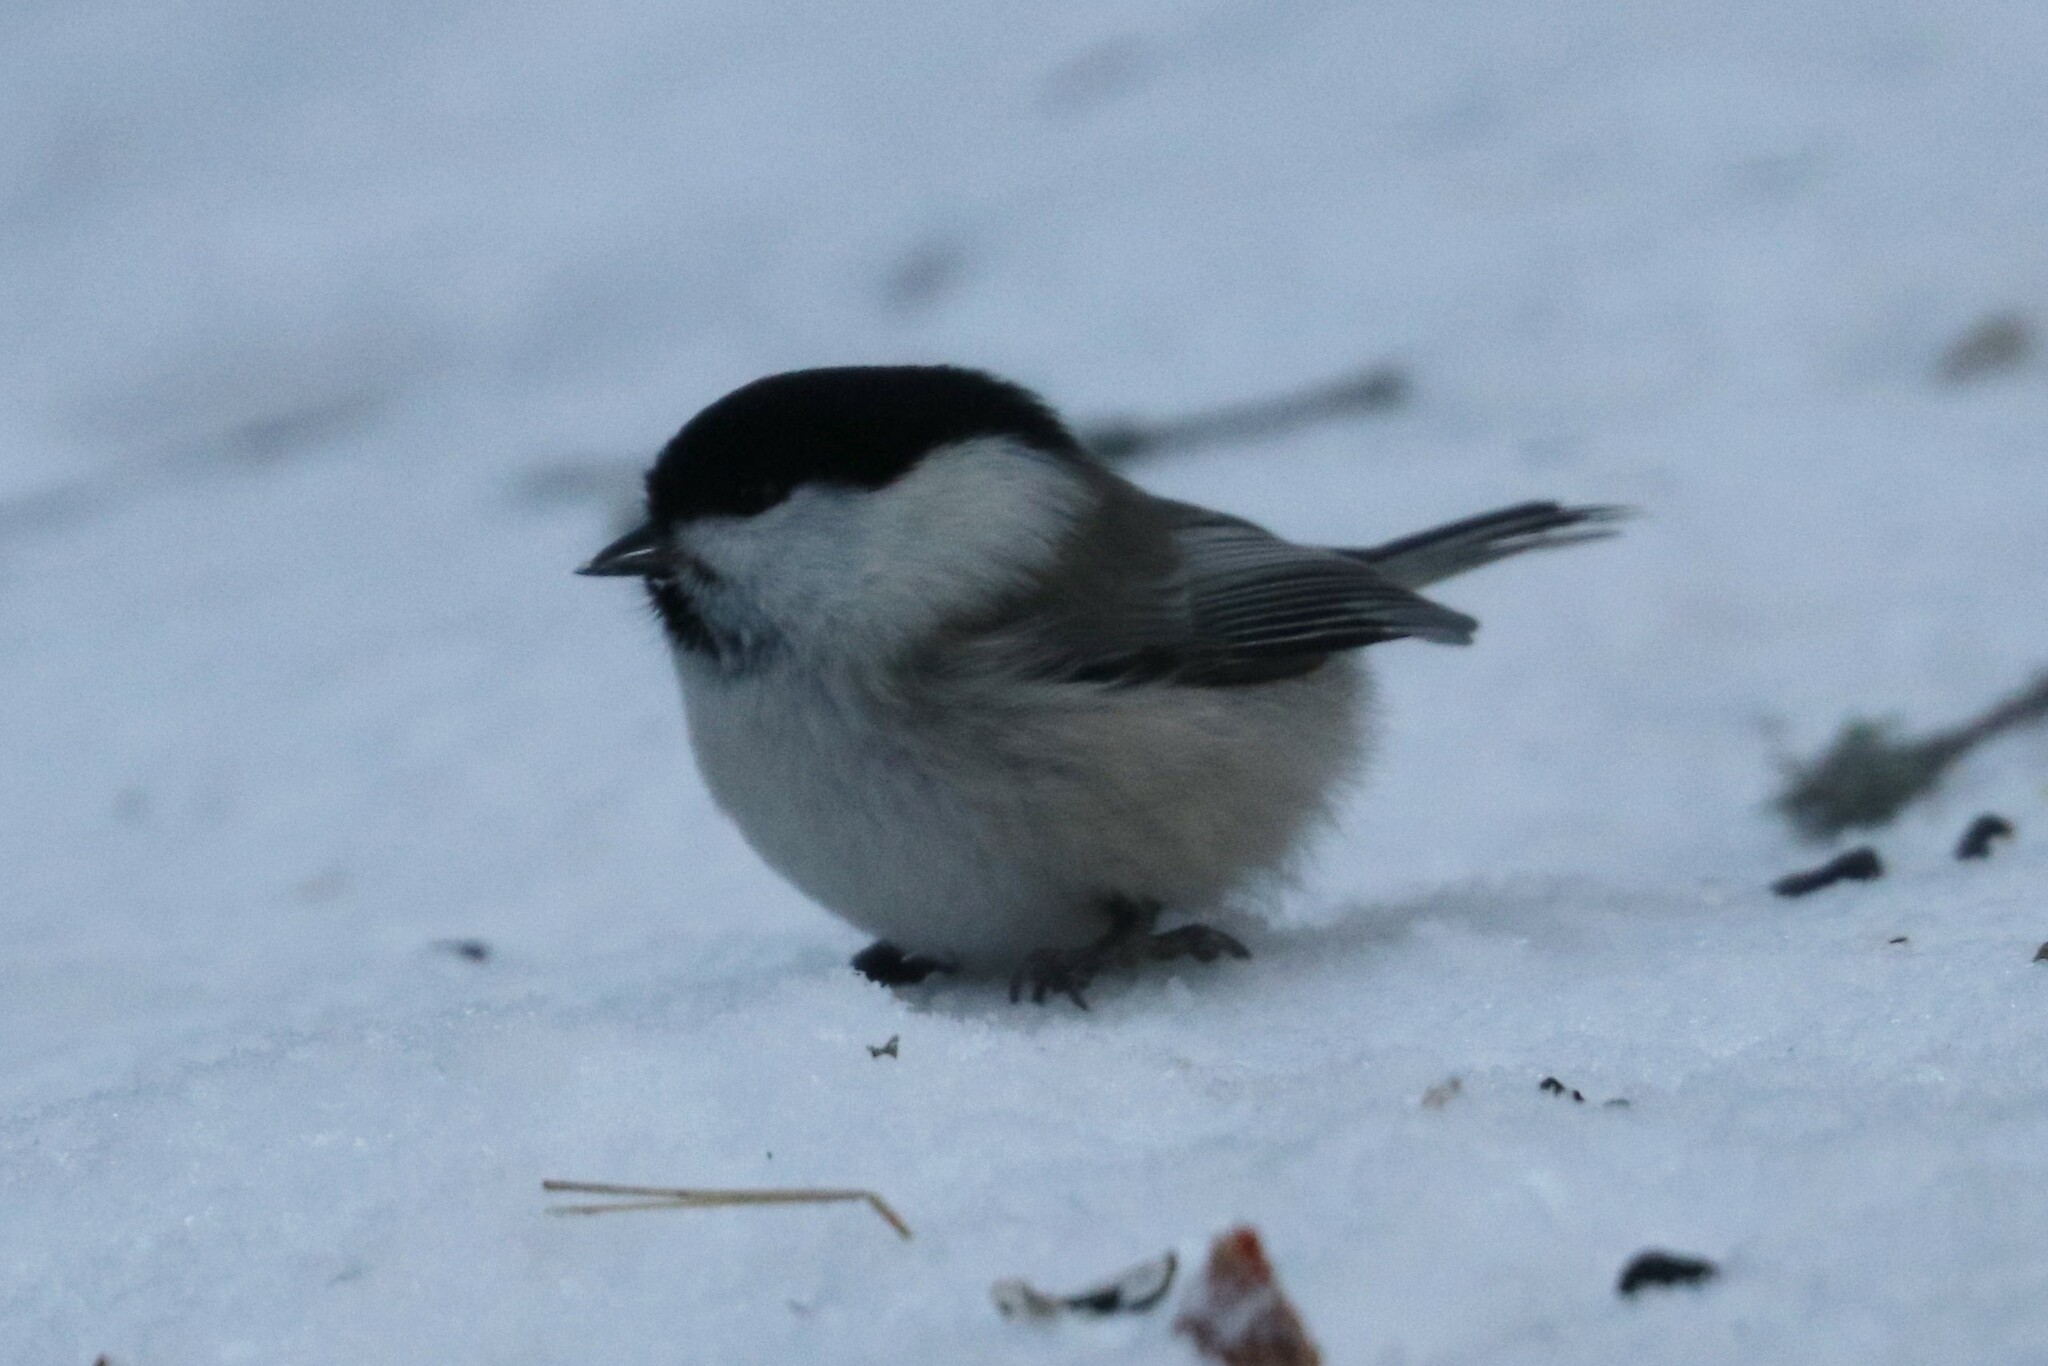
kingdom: Animalia
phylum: Chordata
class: Aves
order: Passeriformes
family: Paridae
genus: Poecile
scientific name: Poecile montanus
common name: Willow tit
